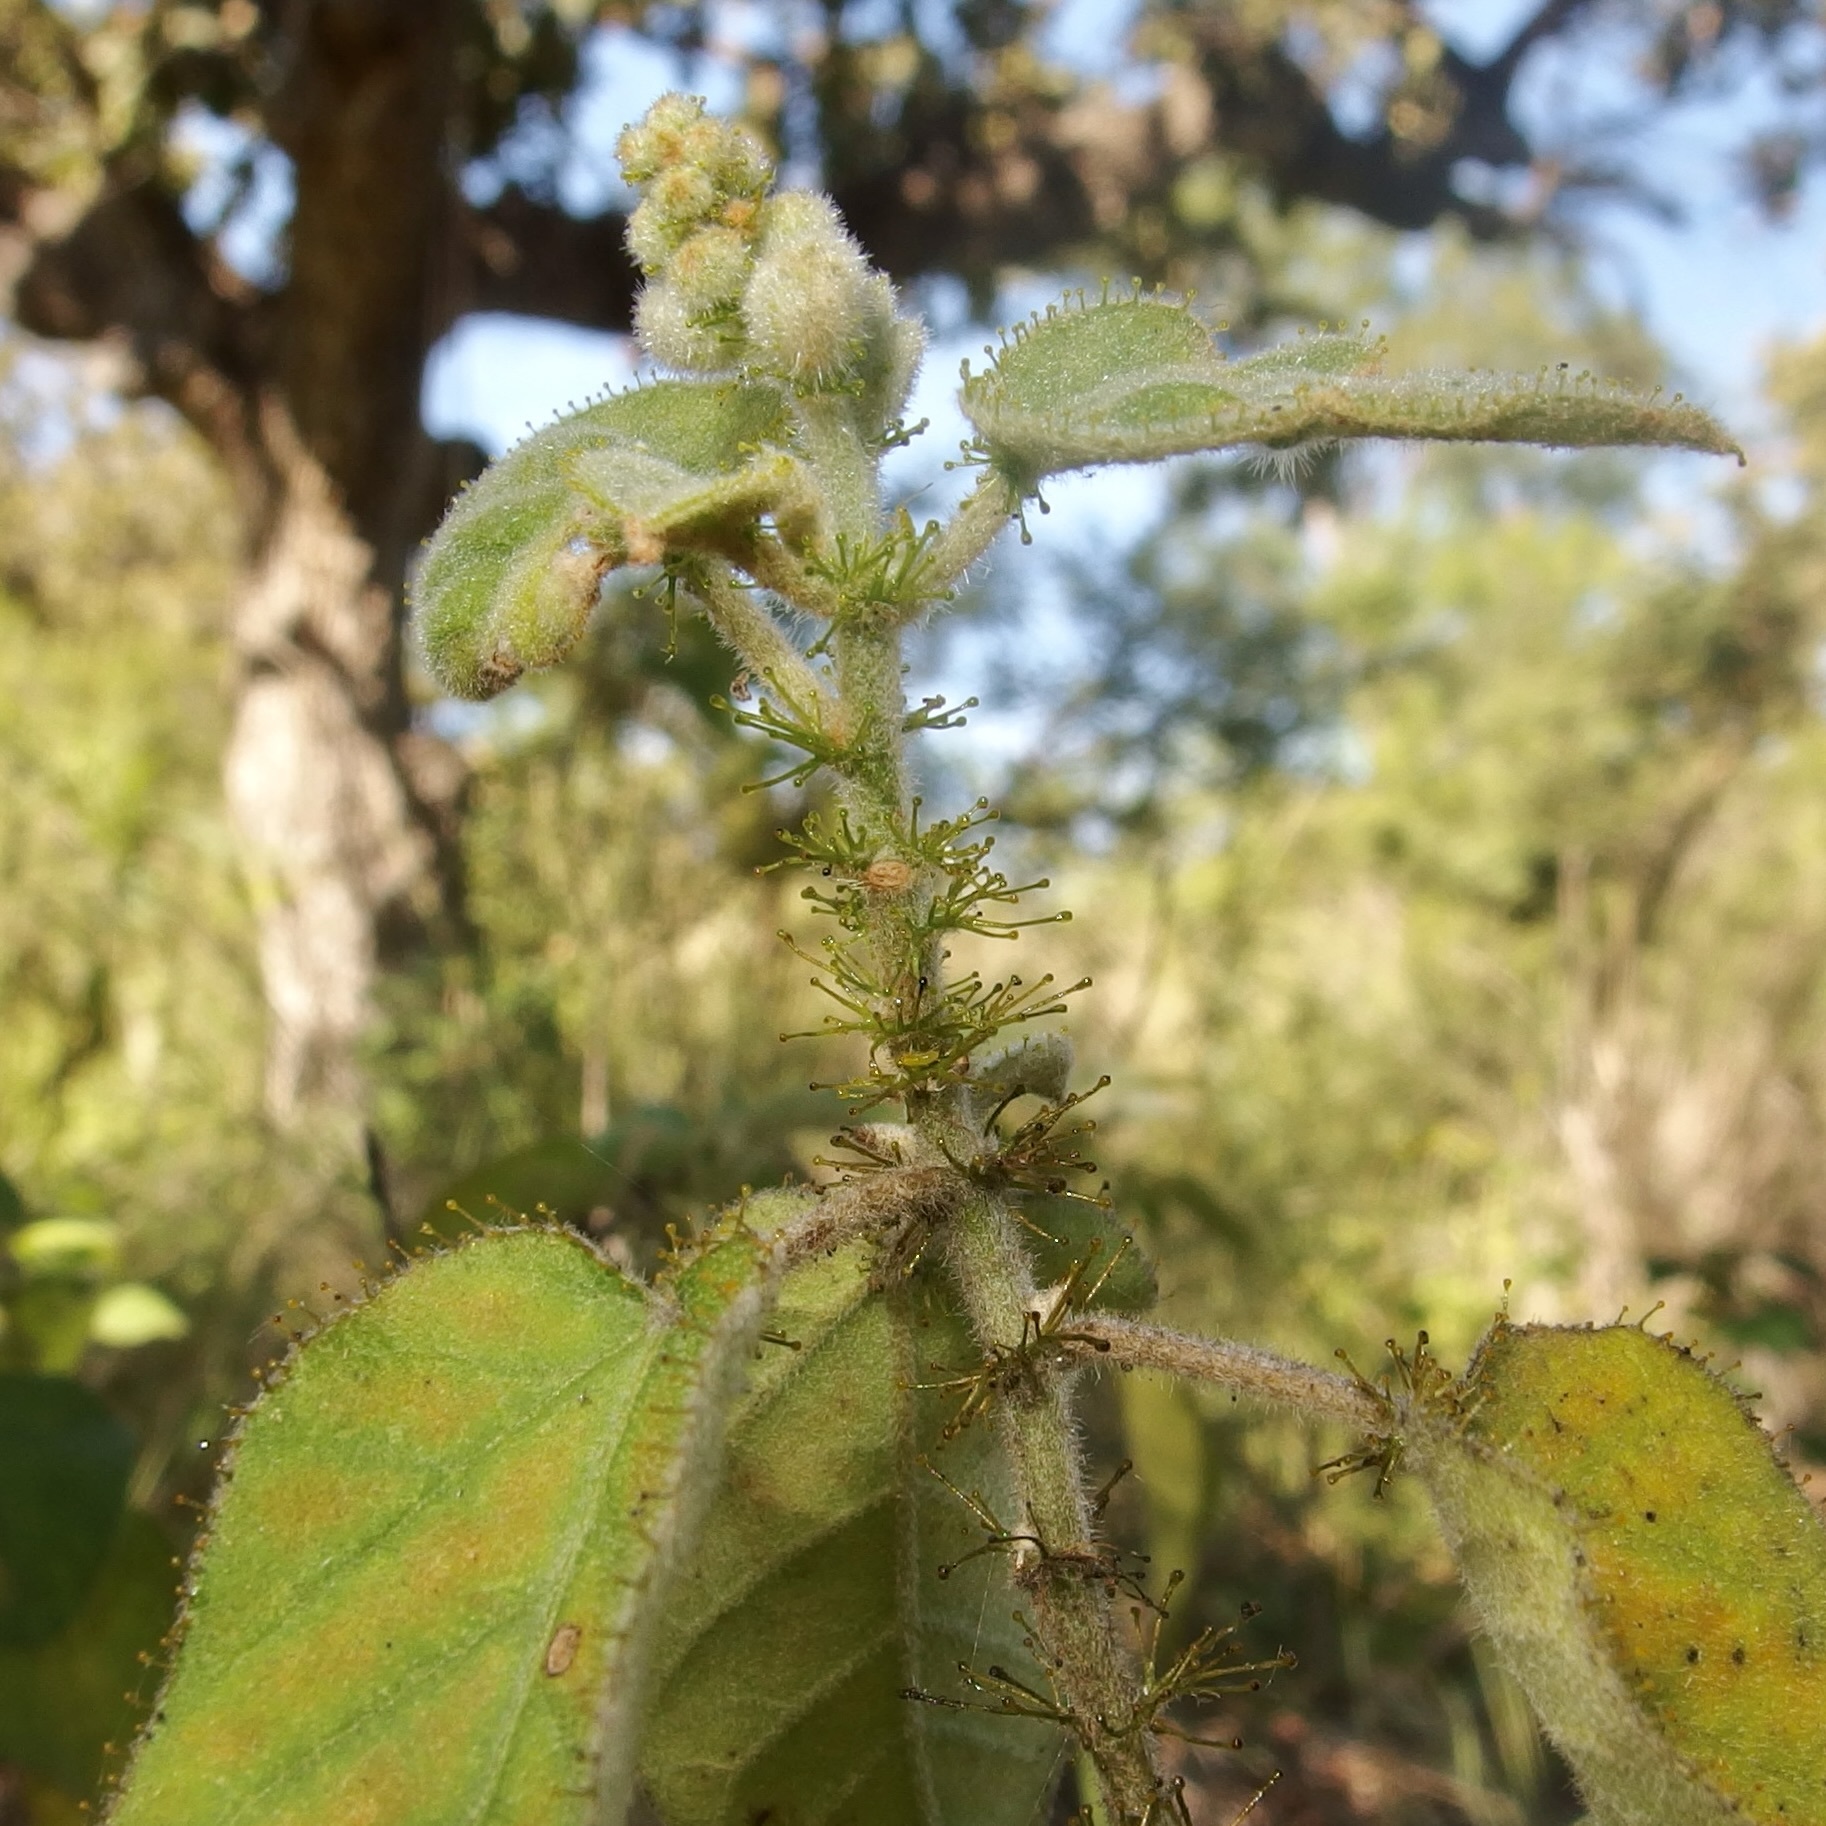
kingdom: Plantae
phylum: Tracheophyta
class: Magnoliopsida
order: Malpighiales
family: Euphorbiaceae
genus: Croton
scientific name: Croton ciliatoglandulifer
